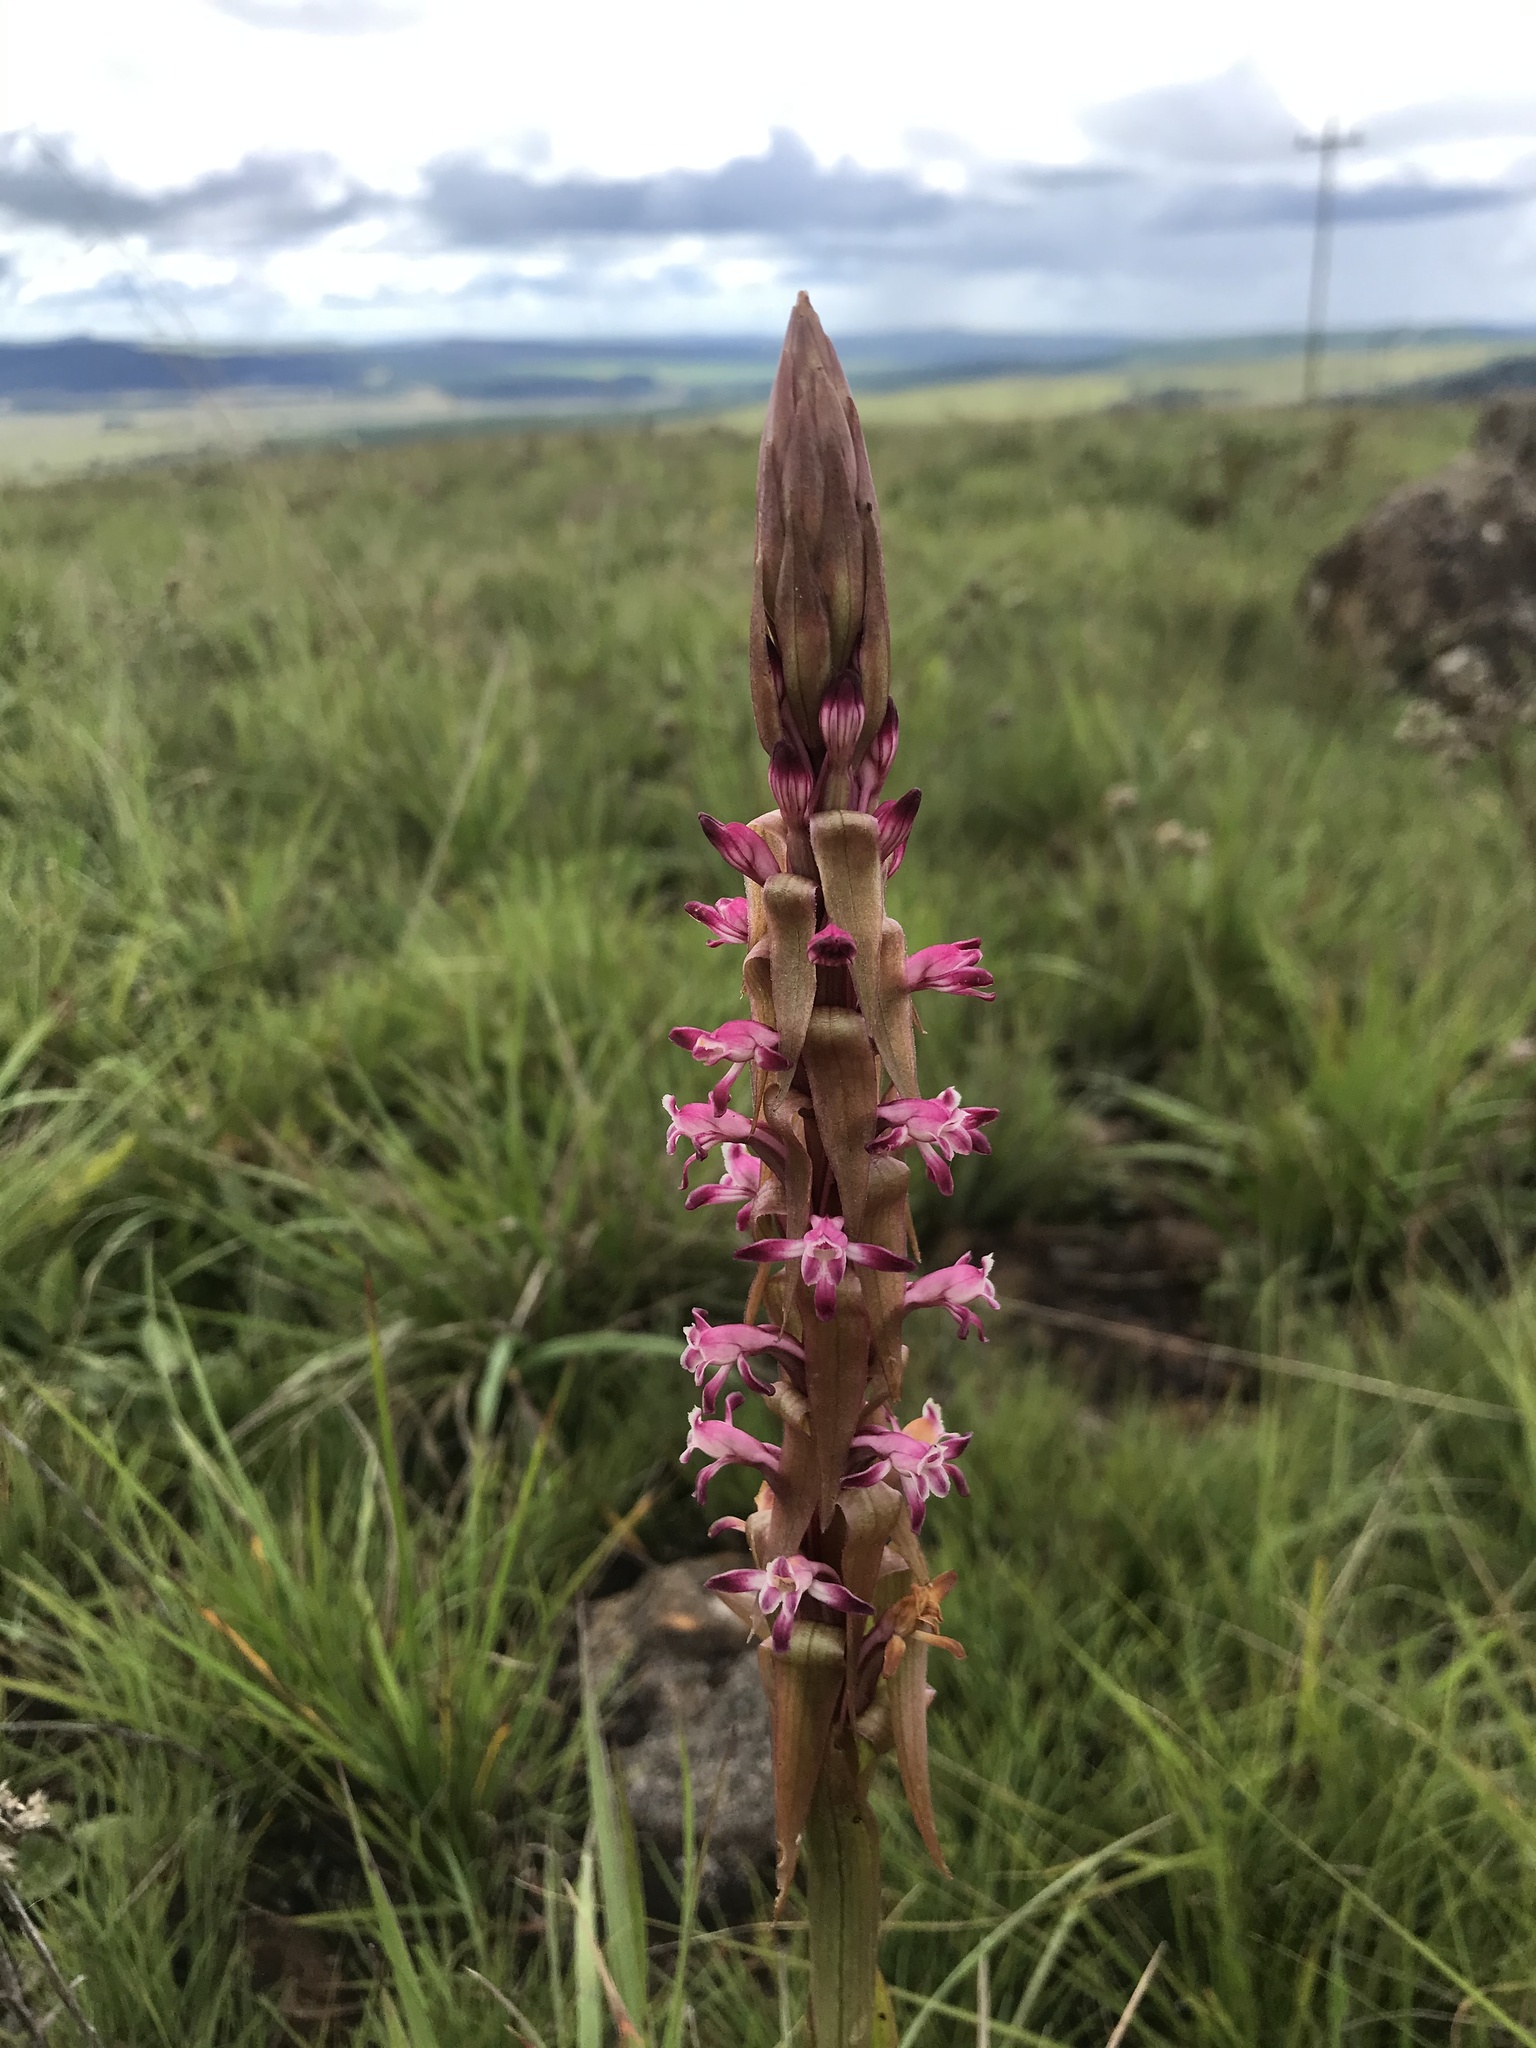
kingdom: Plantae
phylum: Tracheophyta
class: Liliopsida
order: Asparagales
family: Orchidaceae
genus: Satyrium
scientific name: Satyrium longicauda
